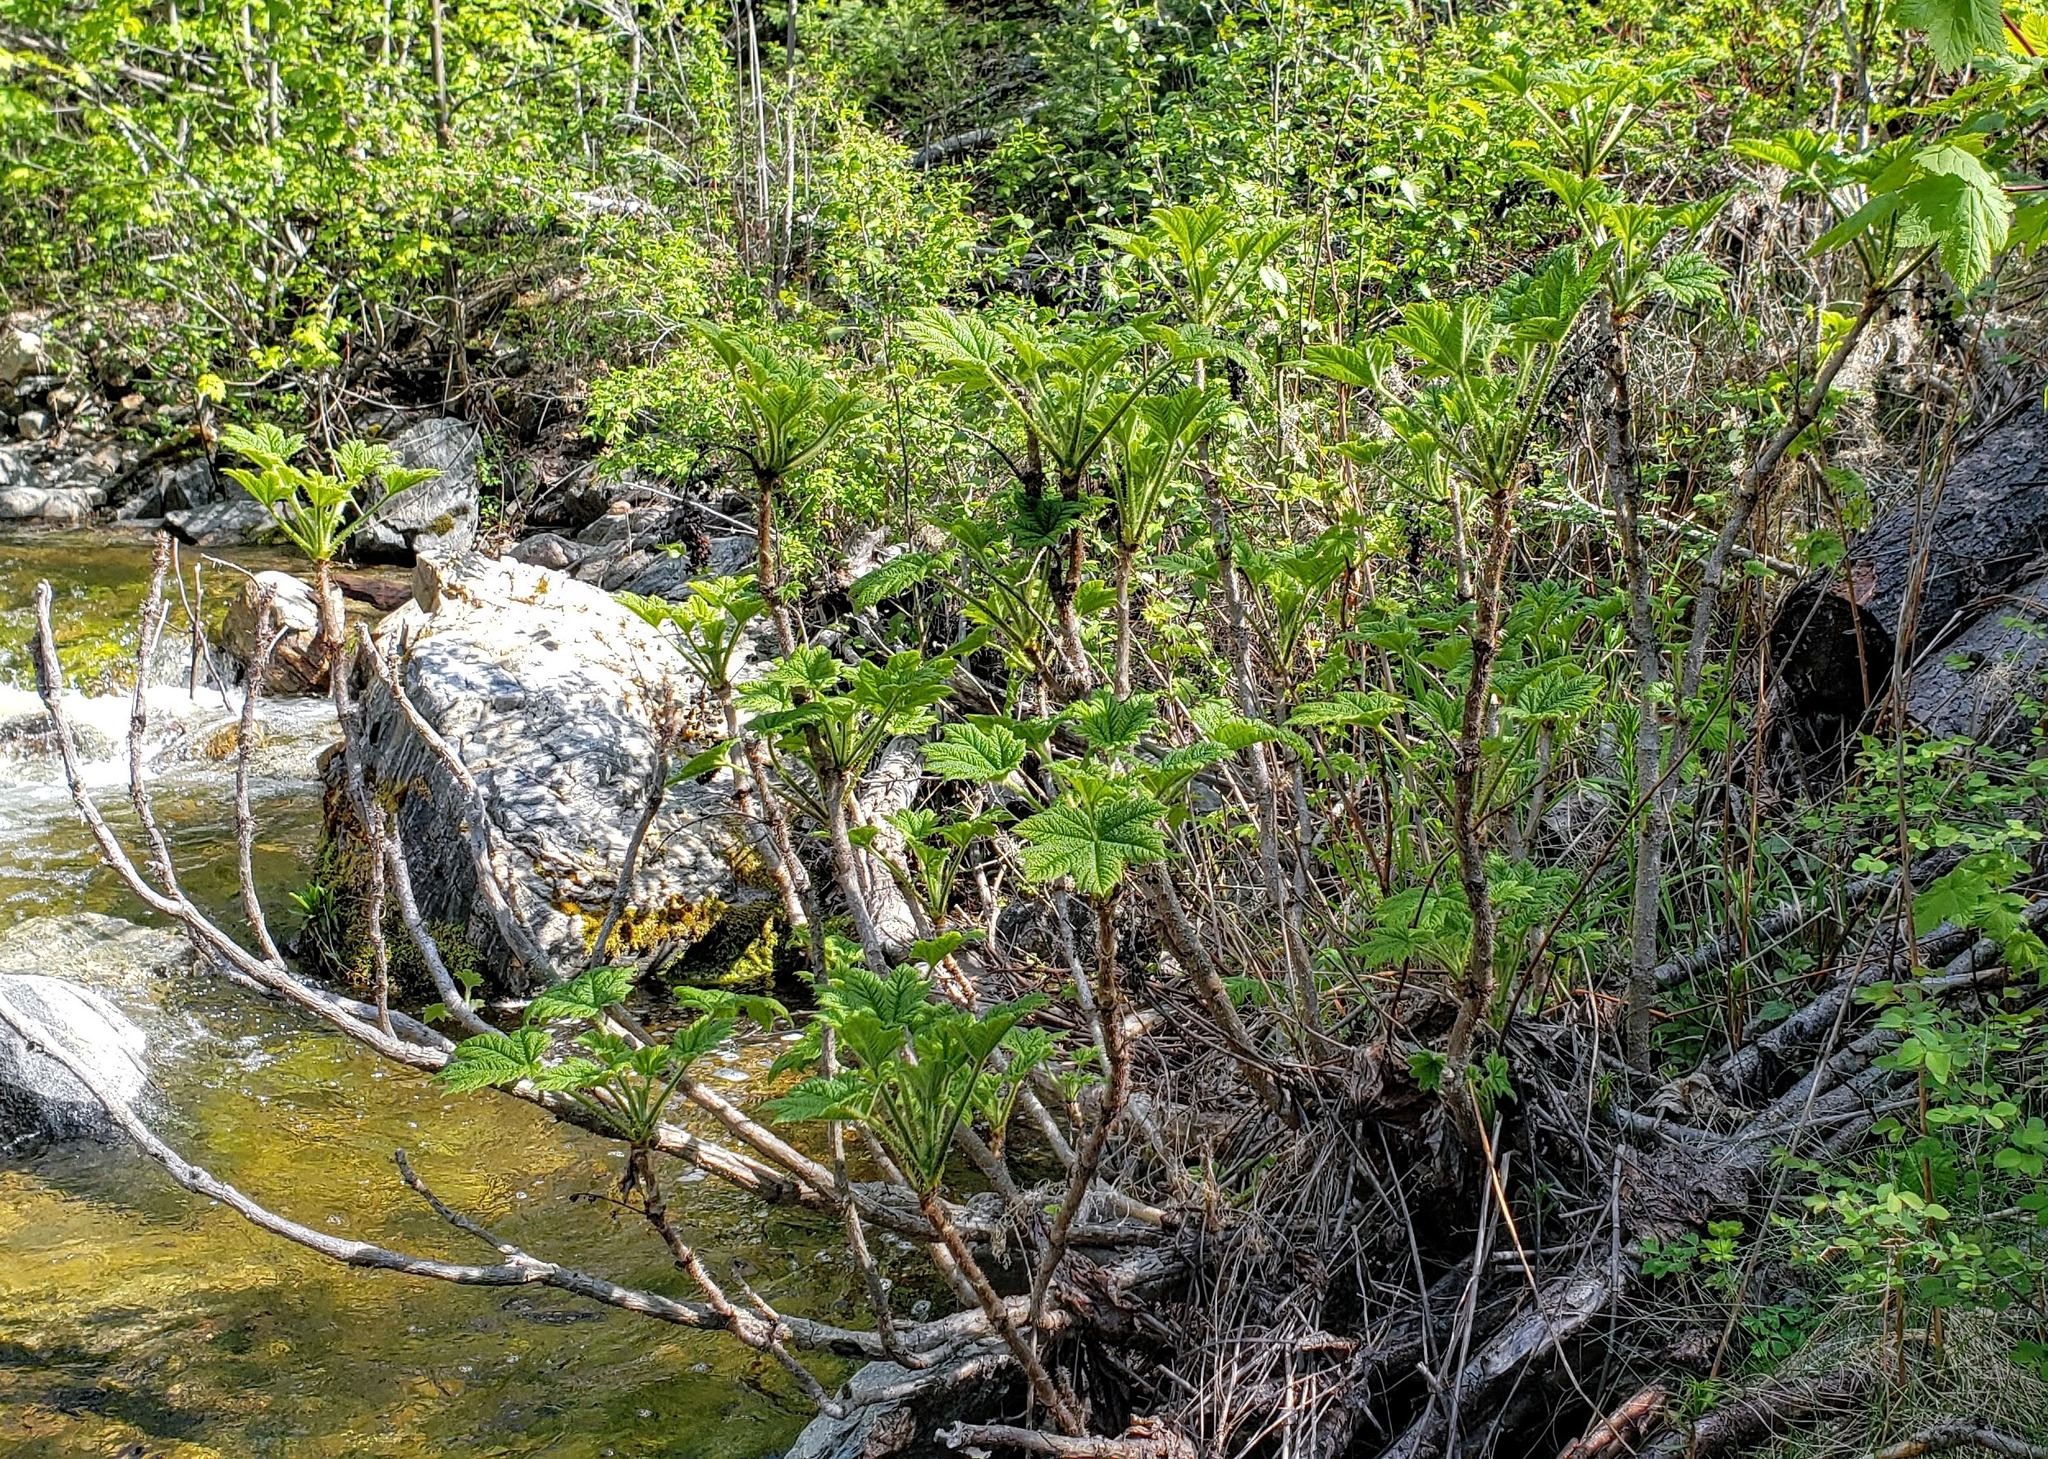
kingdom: Plantae
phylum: Tracheophyta
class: Magnoliopsida
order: Apiales
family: Araliaceae
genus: Oplopanax
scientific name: Oplopanax horridus
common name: Devil's walking-stick
